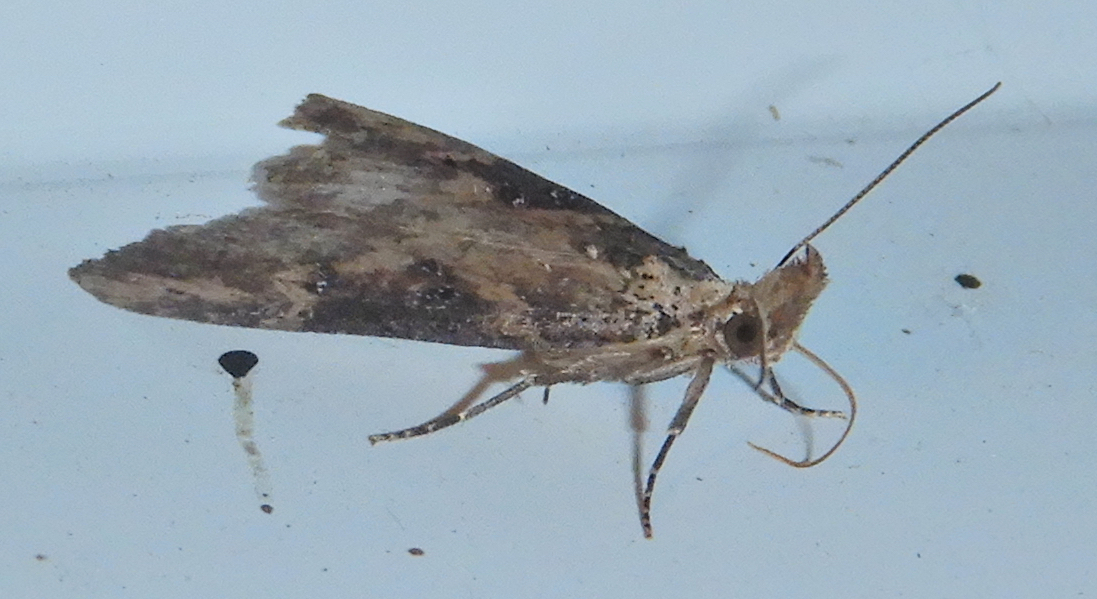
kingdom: Animalia
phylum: Arthropoda
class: Insecta
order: Lepidoptera
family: Erebidae
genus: Hypena
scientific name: Hypena humuli
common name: Hop vine snout
